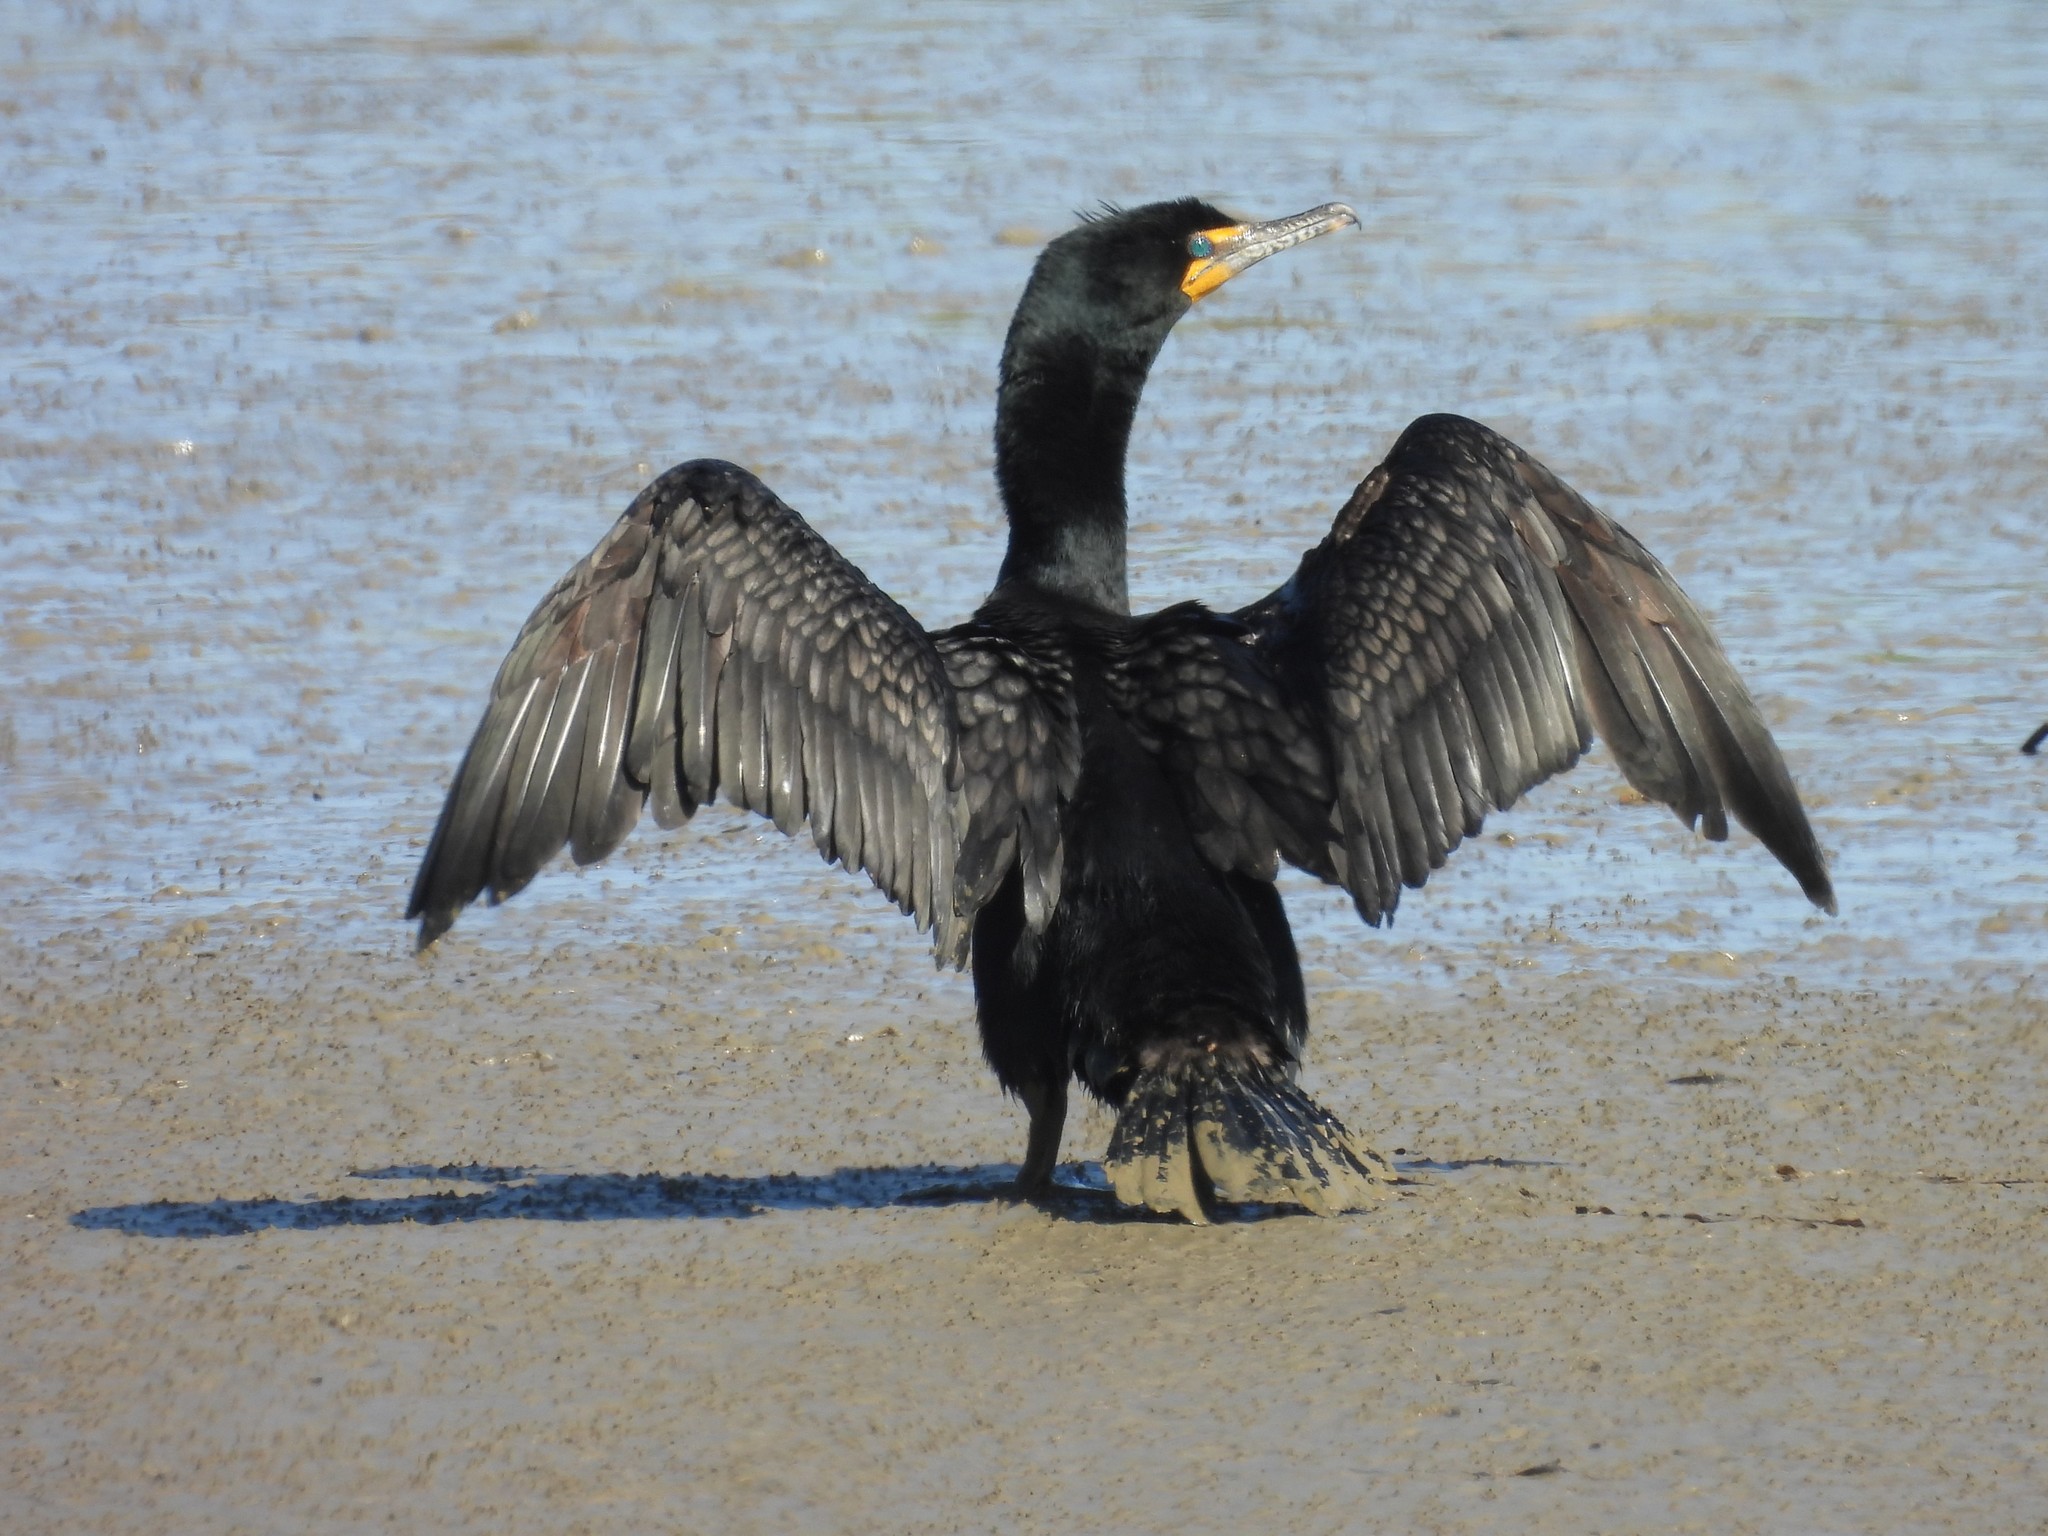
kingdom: Animalia
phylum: Chordata
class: Aves
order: Suliformes
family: Phalacrocoracidae
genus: Phalacrocorax
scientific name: Phalacrocorax auritus
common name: Double-crested cormorant
